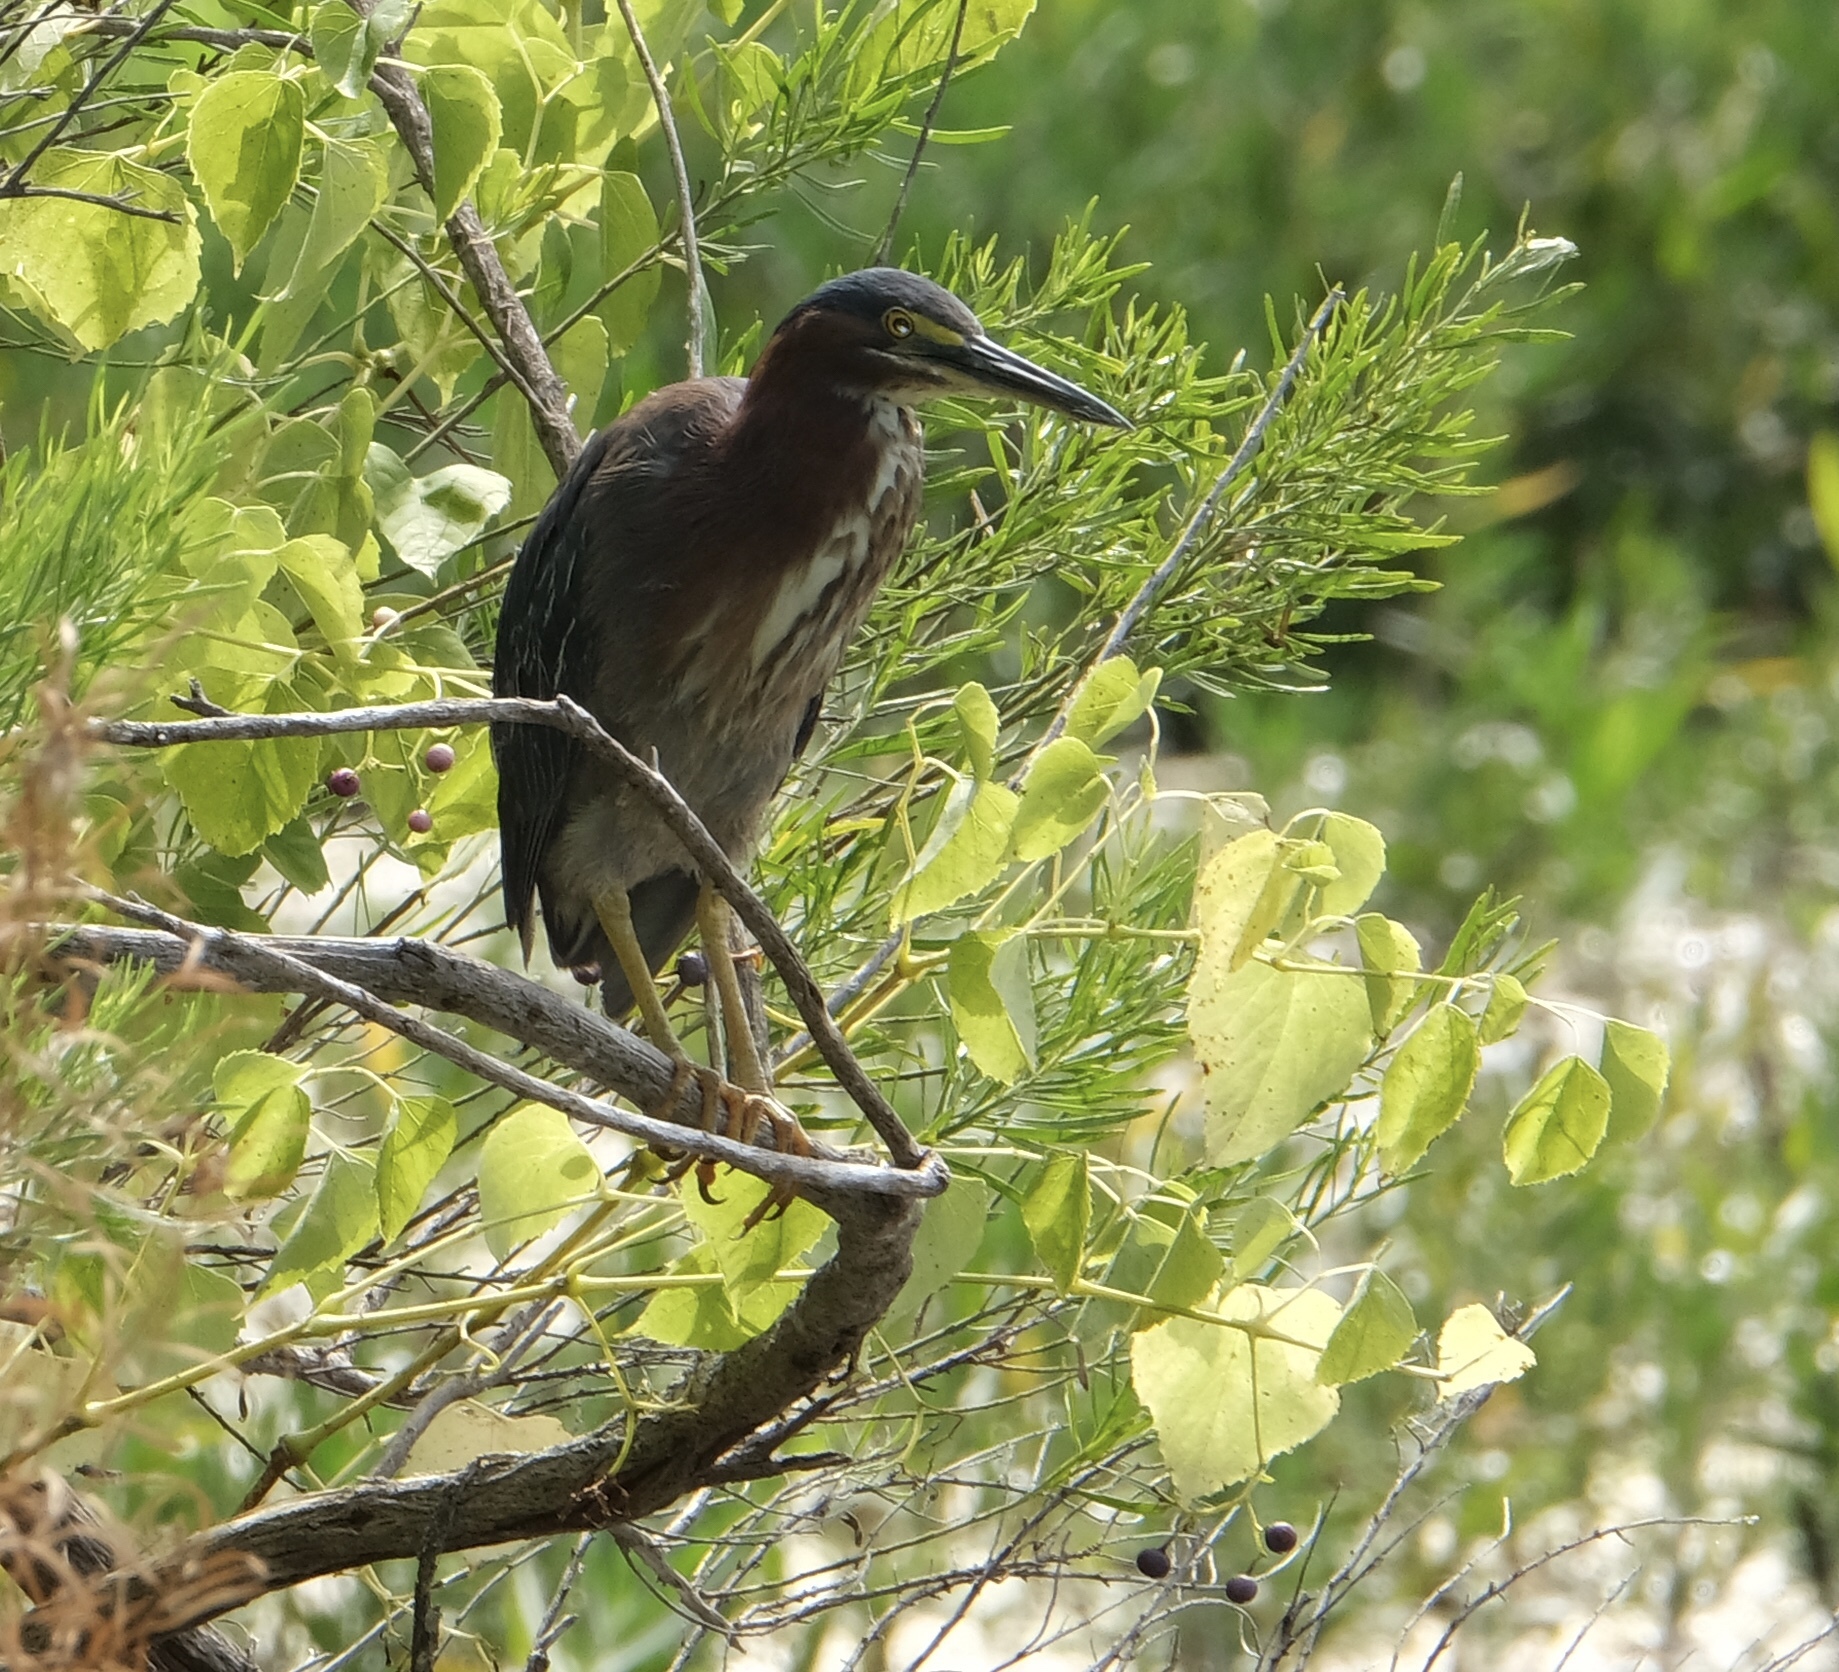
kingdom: Animalia
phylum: Chordata
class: Aves
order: Pelecaniformes
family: Ardeidae
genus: Butorides
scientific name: Butorides virescens
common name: Green heron
